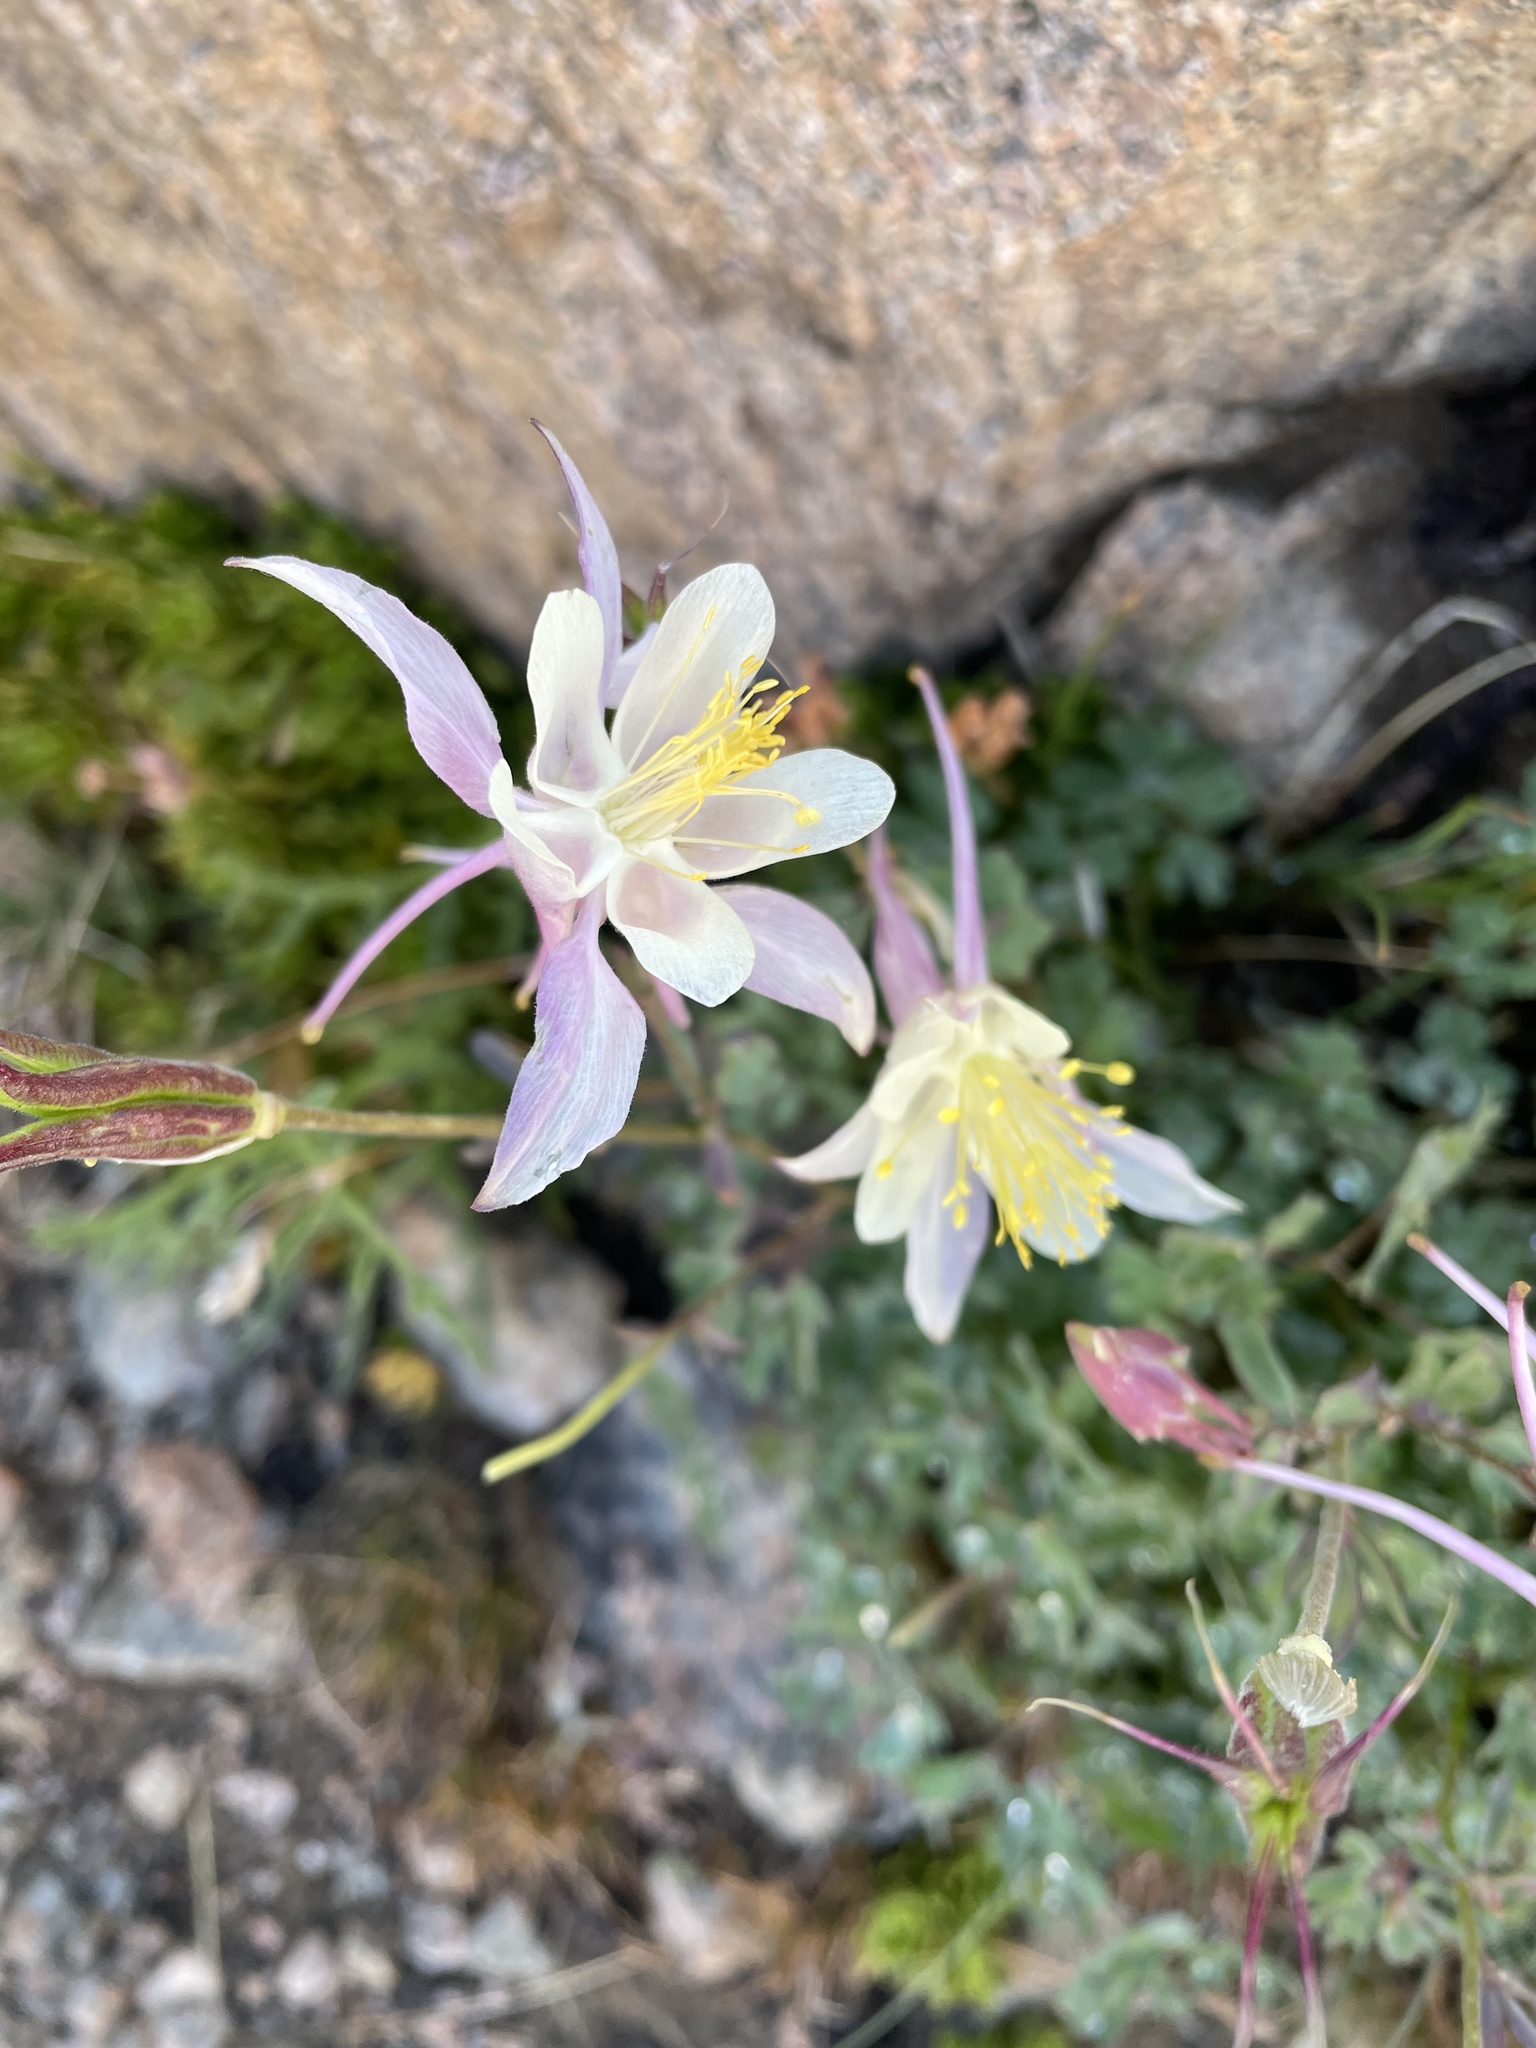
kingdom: Plantae
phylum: Tracheophyta
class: Magnoliopsida
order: Ranunculales
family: Ranunculaceae
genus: Aquilegia
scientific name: Aquilegia pubescens
